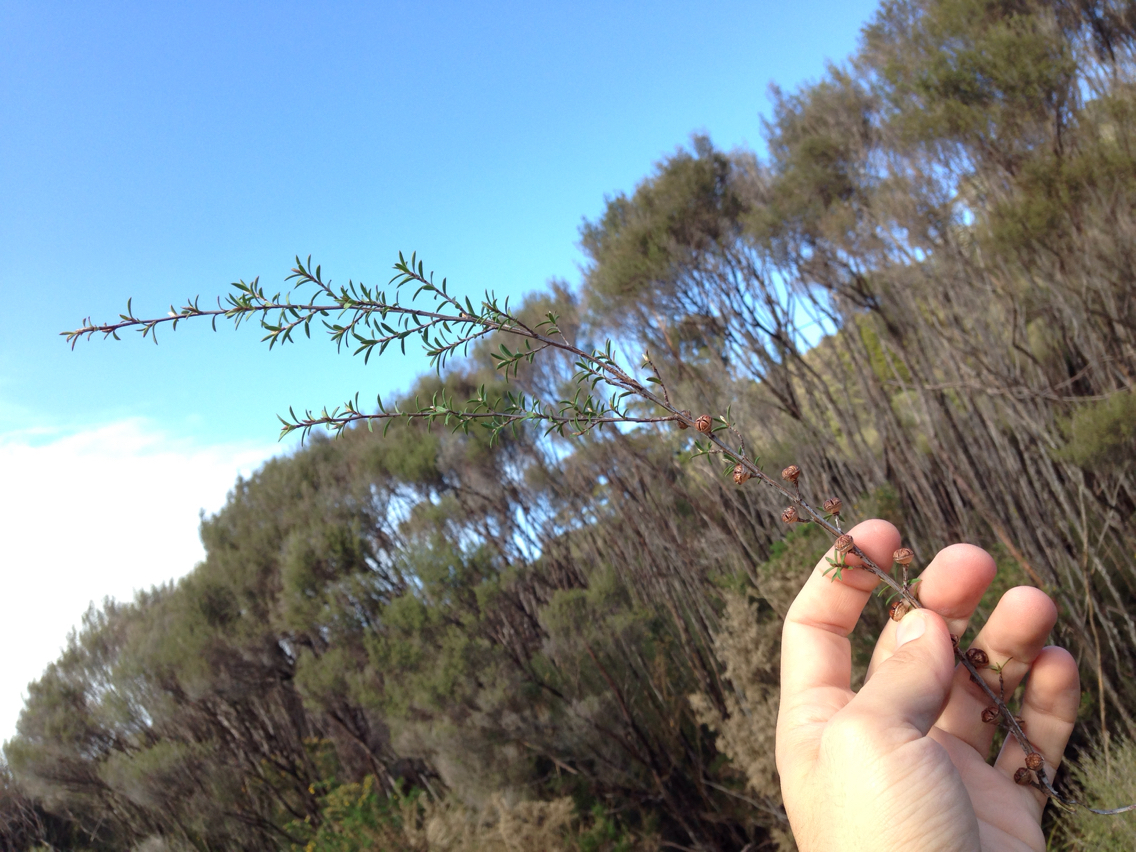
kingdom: Plantae
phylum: Tracheophyta
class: Magnoliopsida
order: Myrtales
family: Myrtaceae
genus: Leptospermum
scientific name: Leptospermum scoparium
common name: Broom tea-tree
